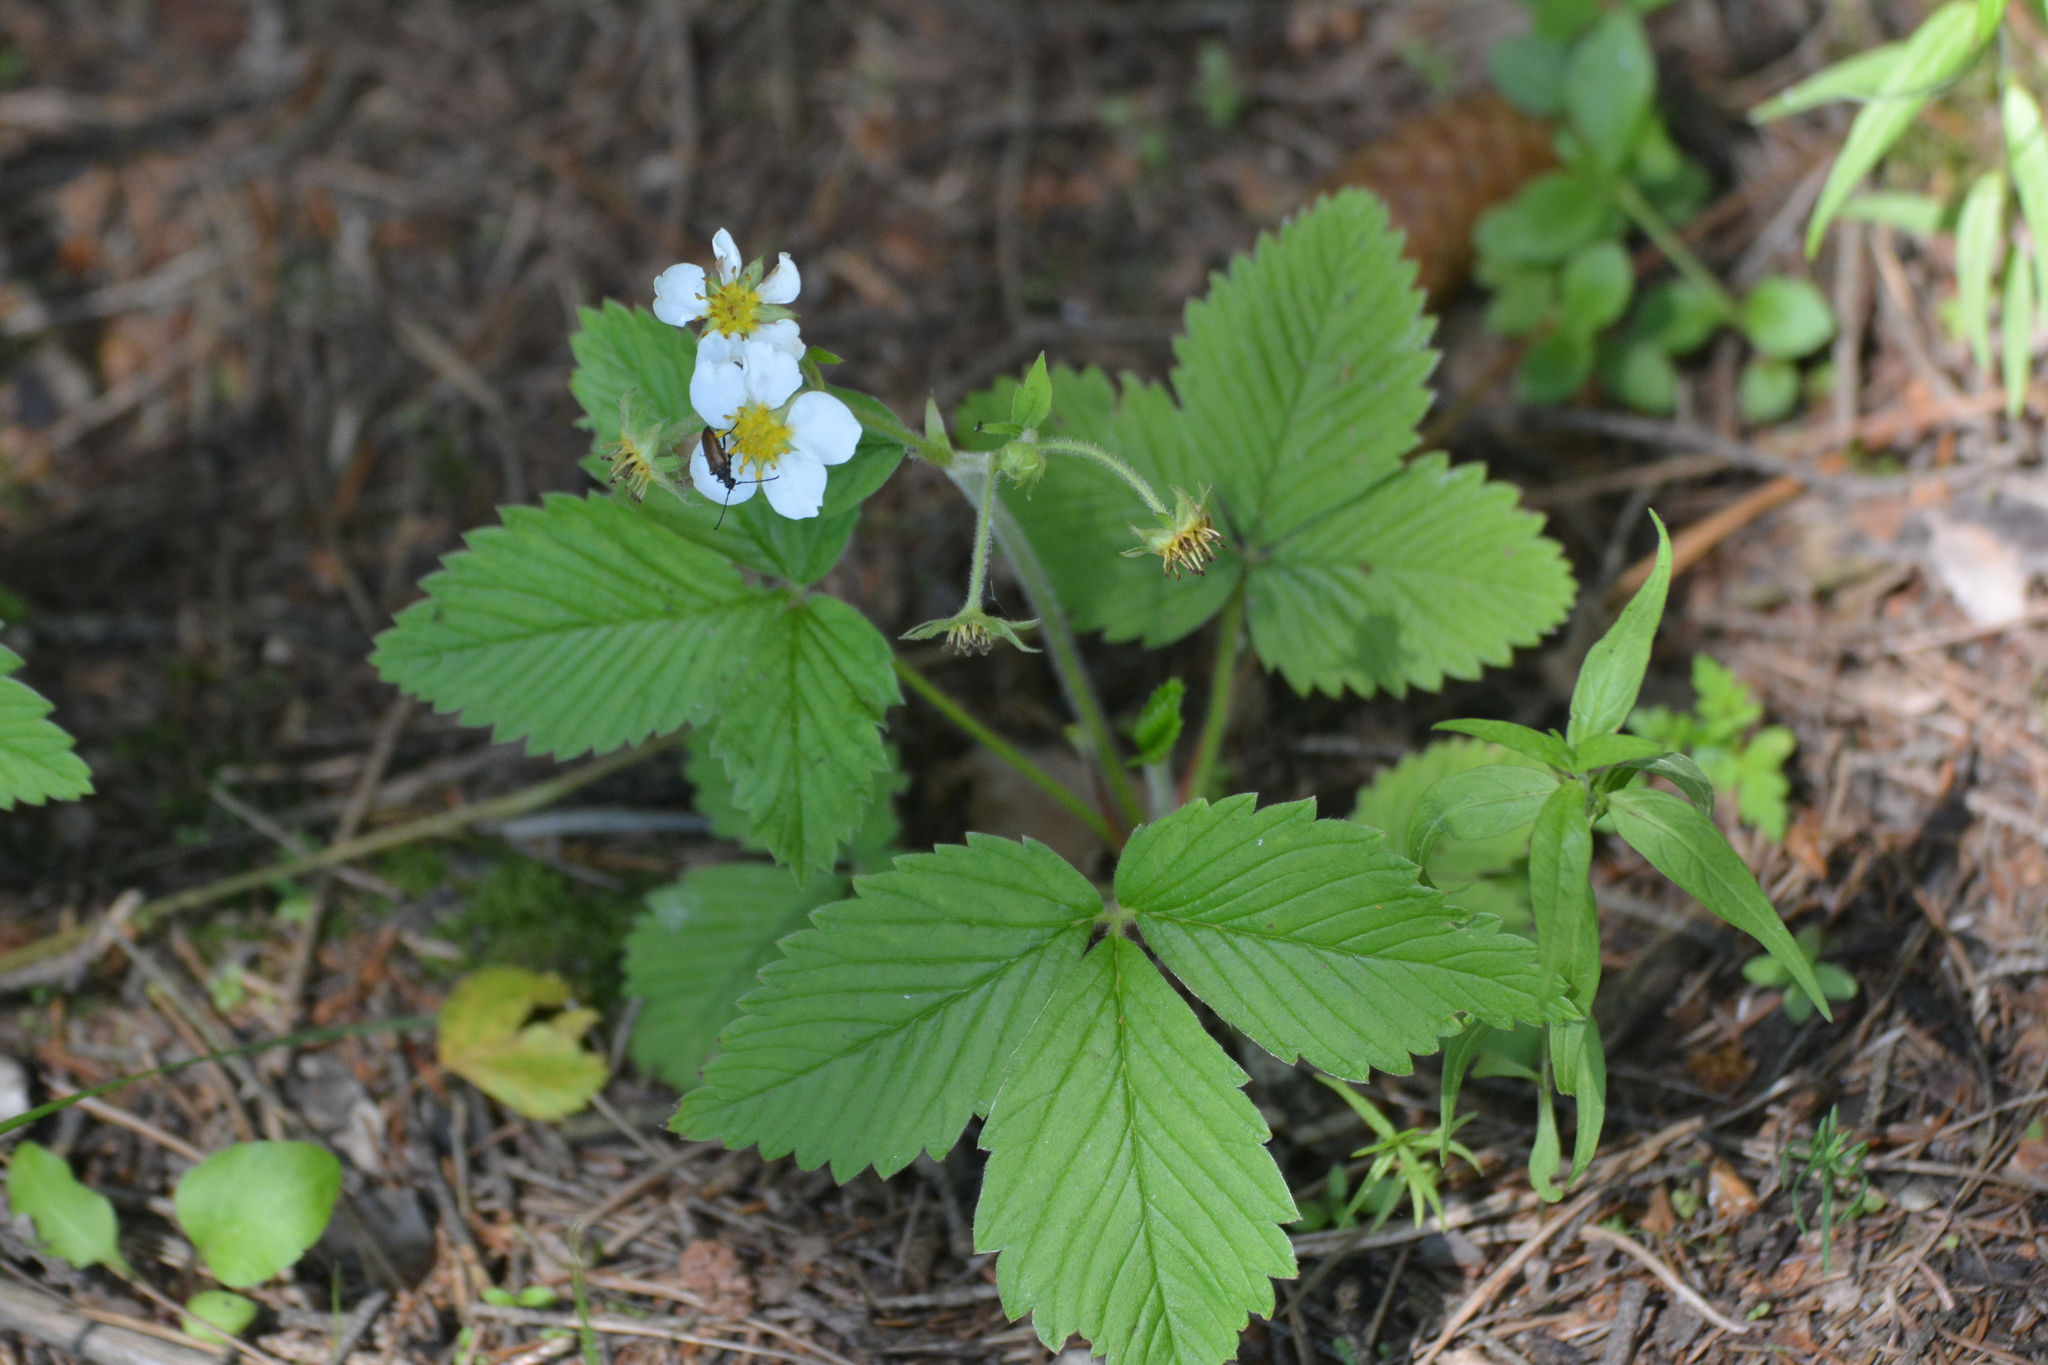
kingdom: Plantae
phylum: Tracheophyta
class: Magnoliopsida
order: Rosales
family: Rosaceae
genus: Fragaria
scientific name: Fragaria moschata
